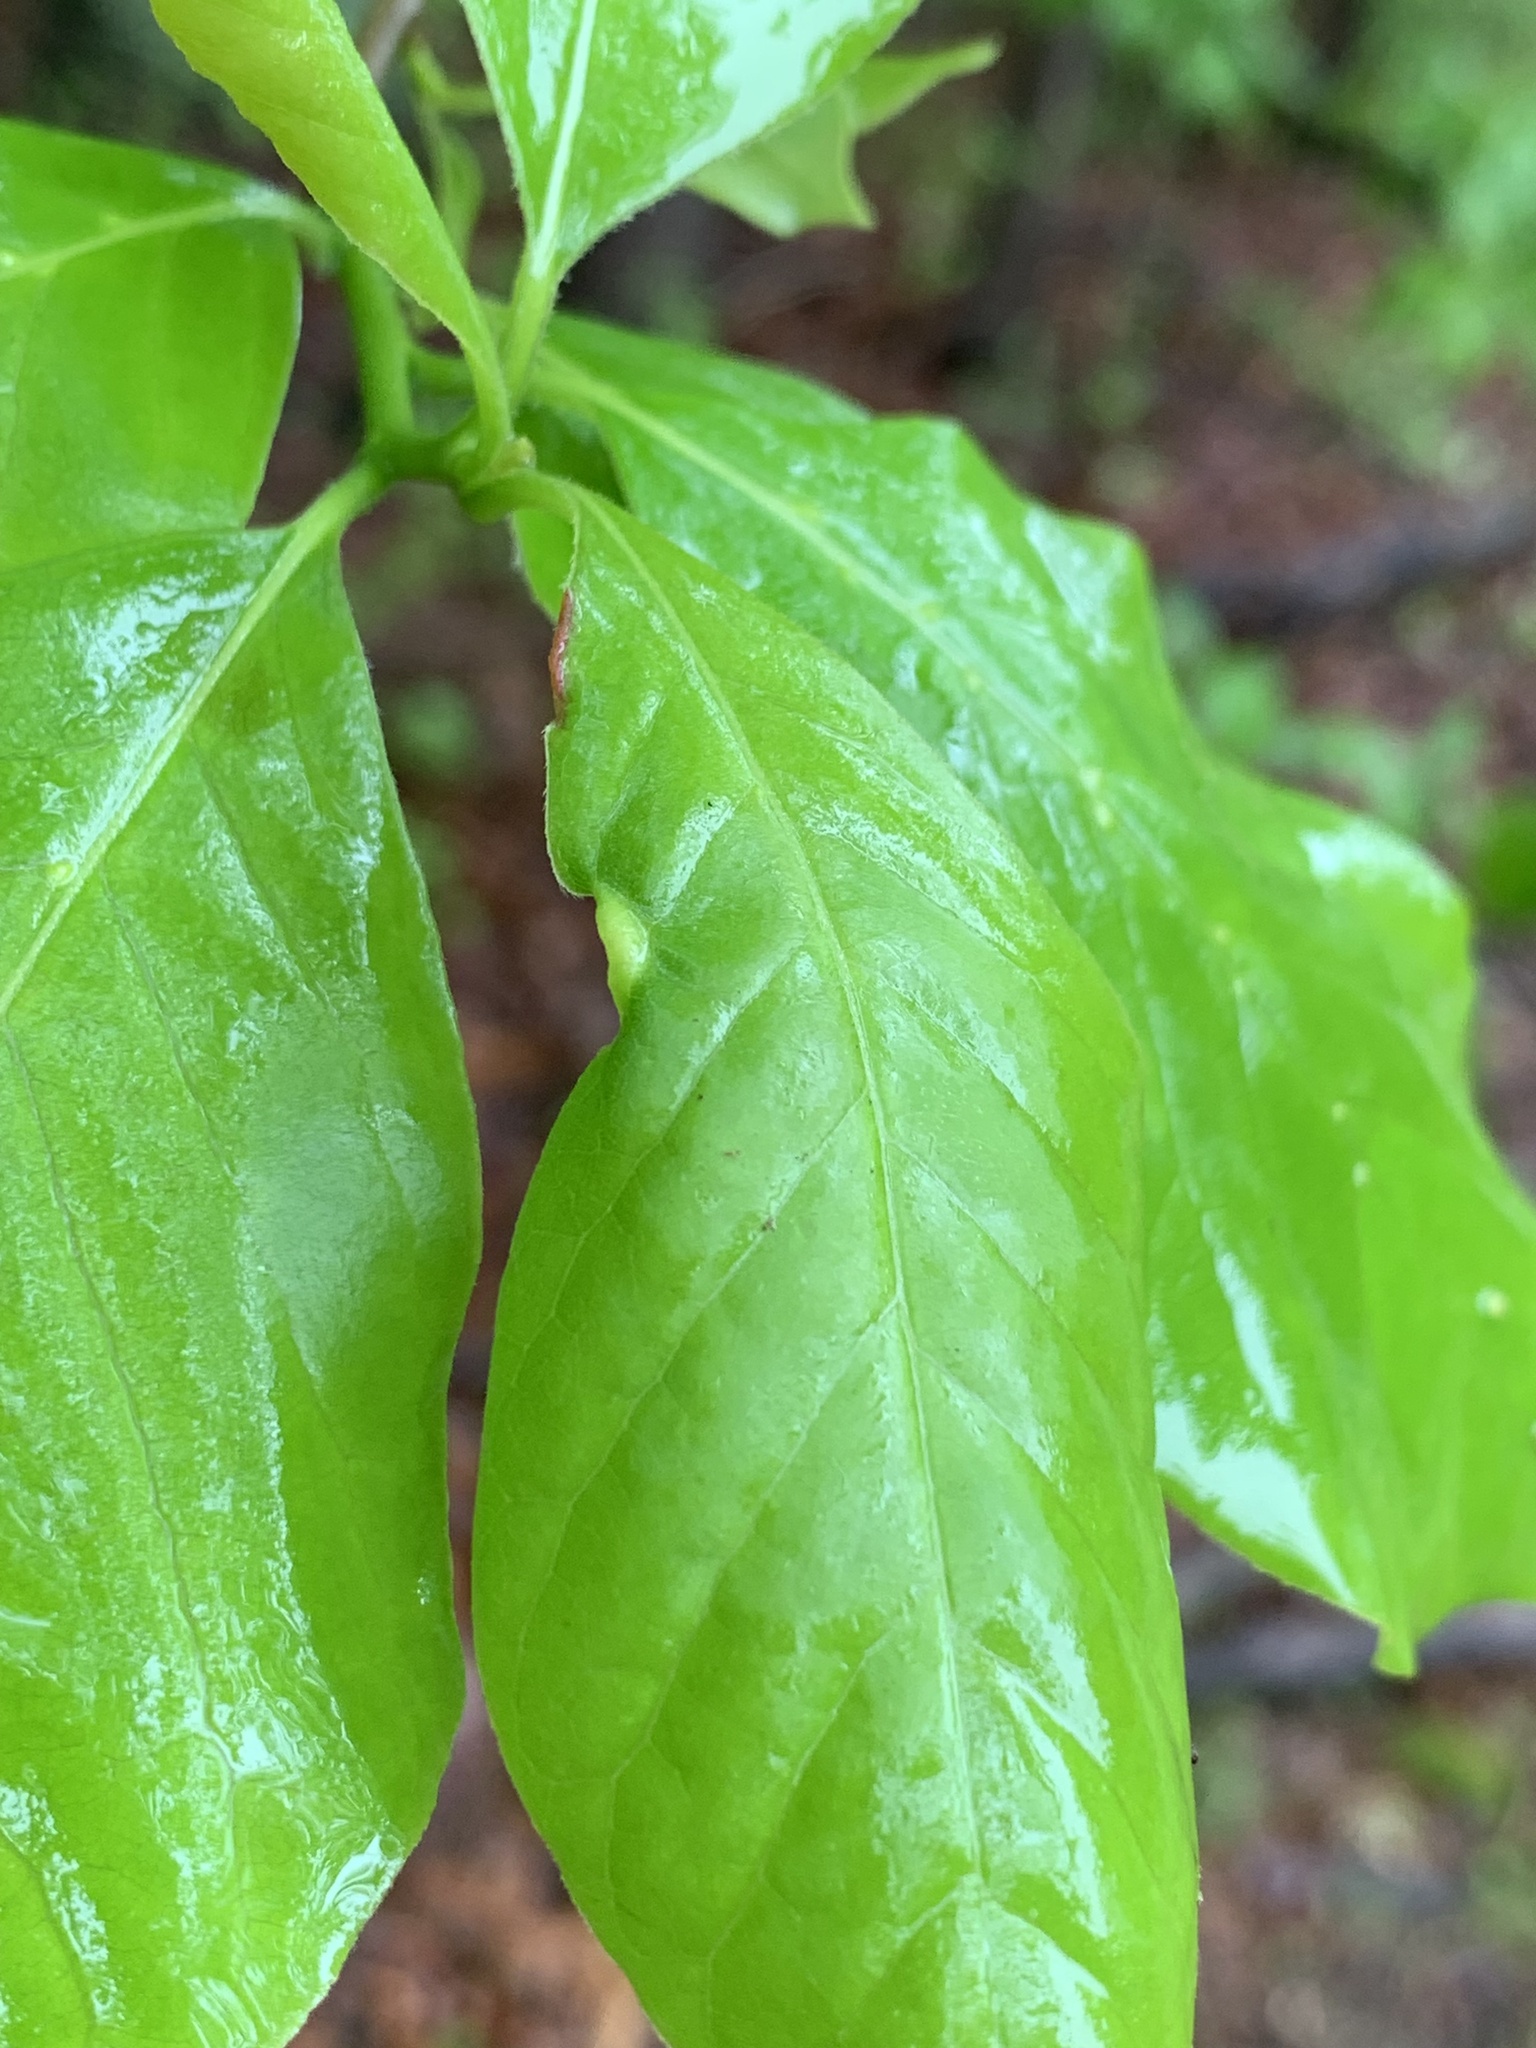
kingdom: Animalia
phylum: Arthropoda
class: Arachnida
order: Trombidiformes
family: Eriophyidae
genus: Aceria
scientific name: Aceria
